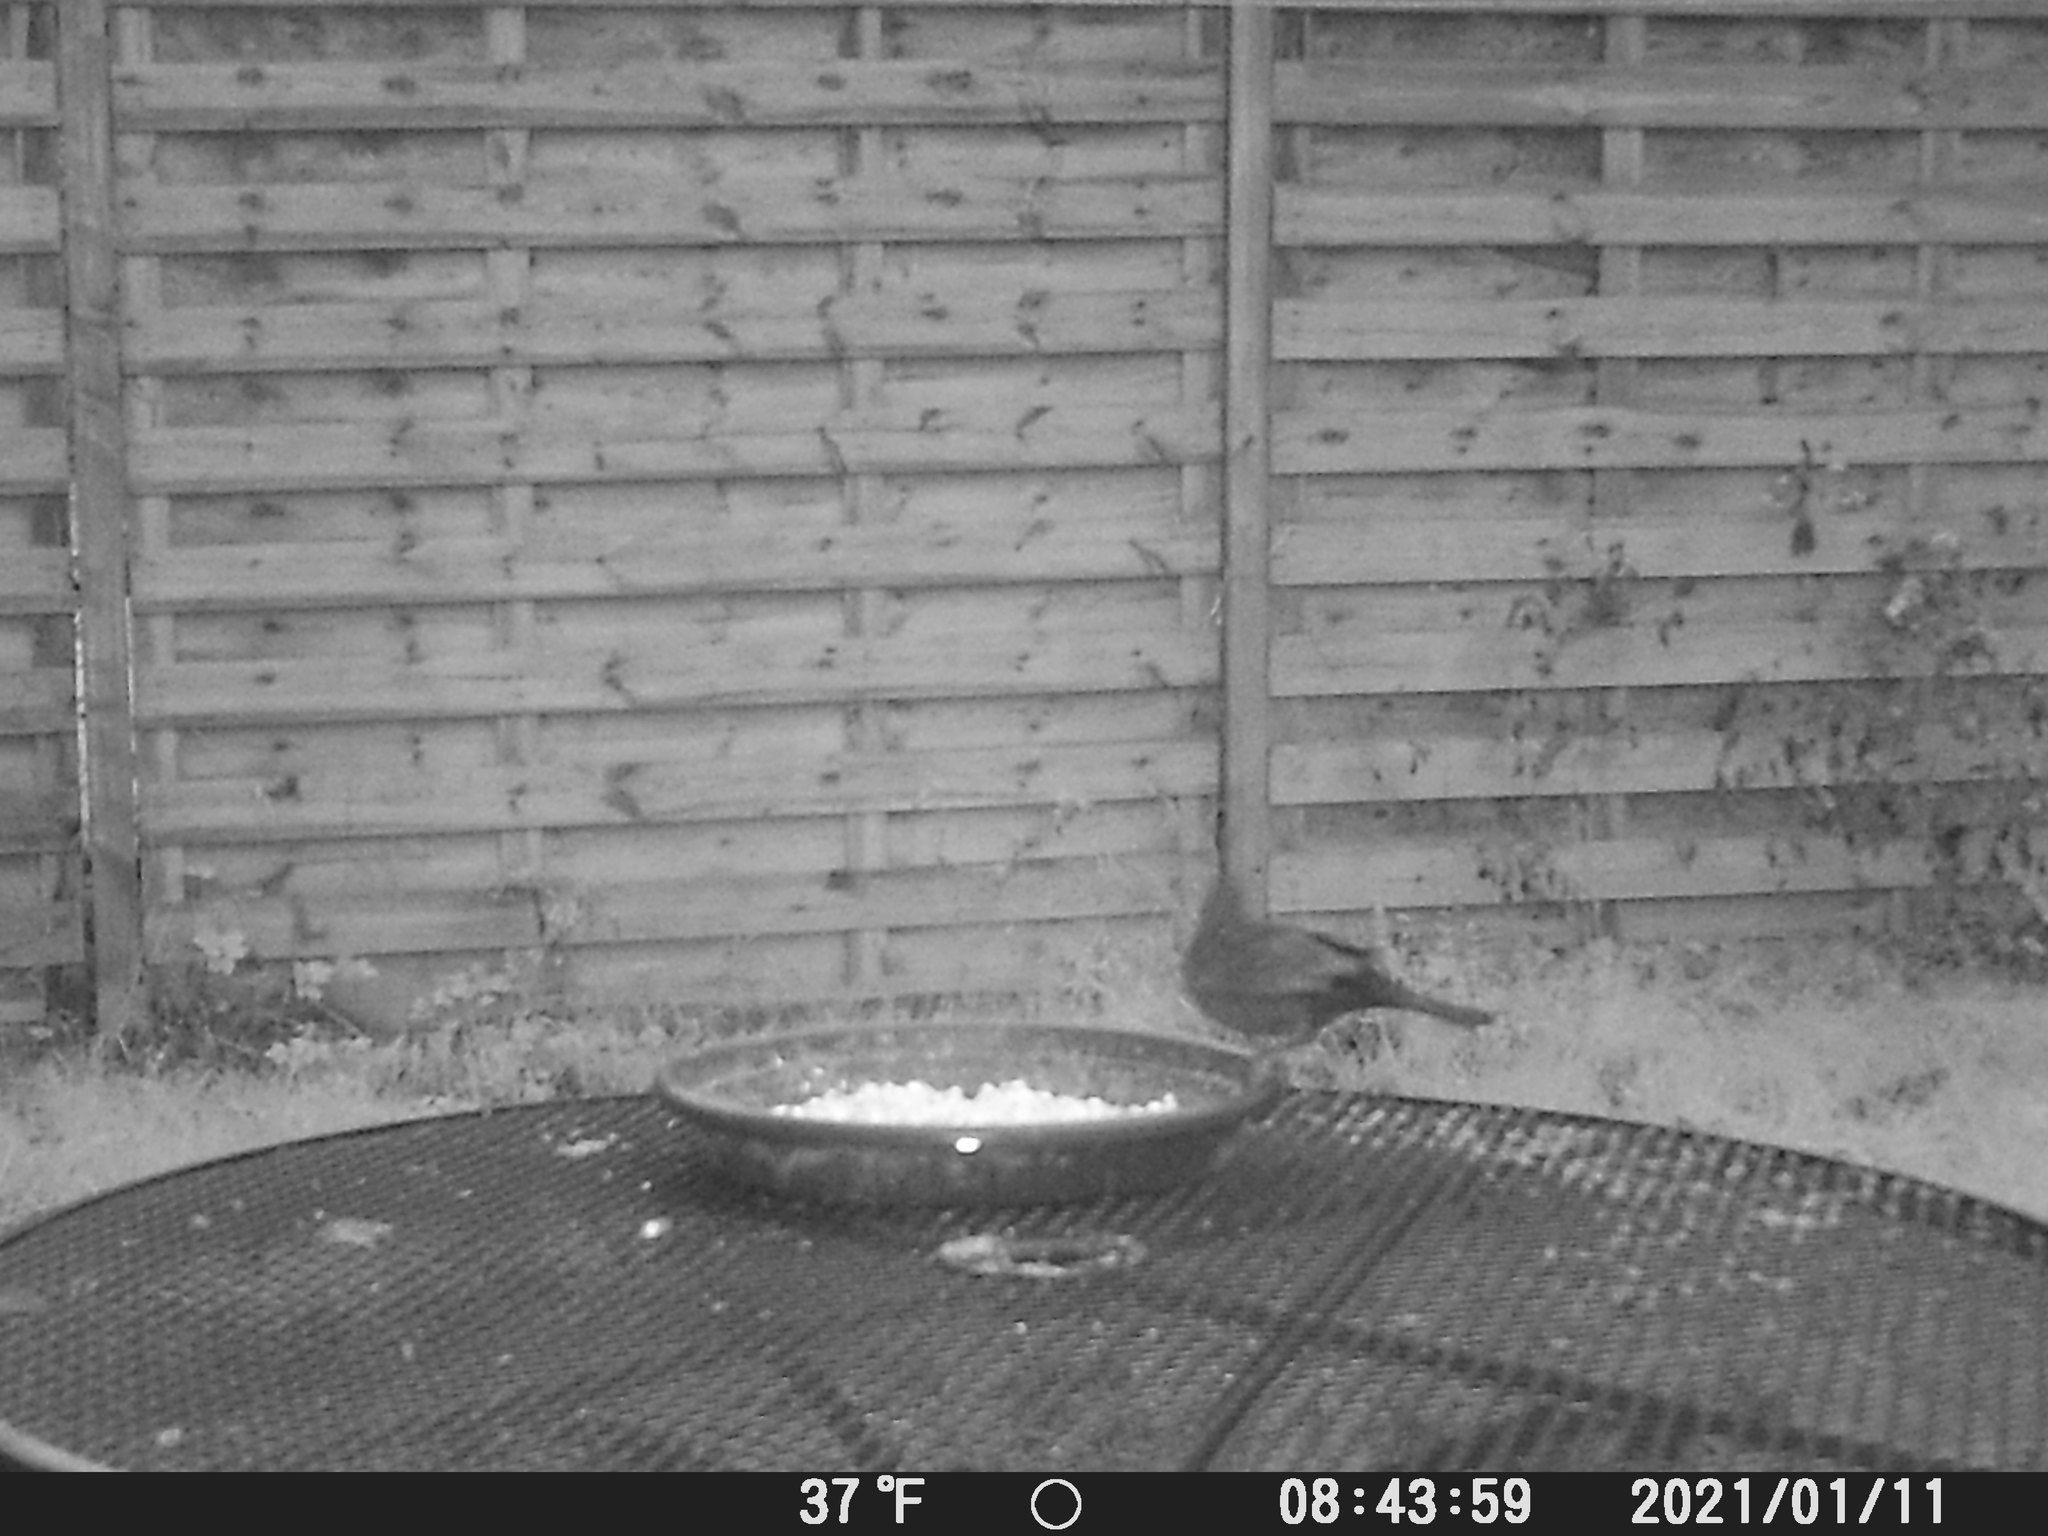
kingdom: Animalia
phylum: Chordata
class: Aves
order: Passeriformes
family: Turdidae
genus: Turdus
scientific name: Turdus merula
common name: Common blackbird
